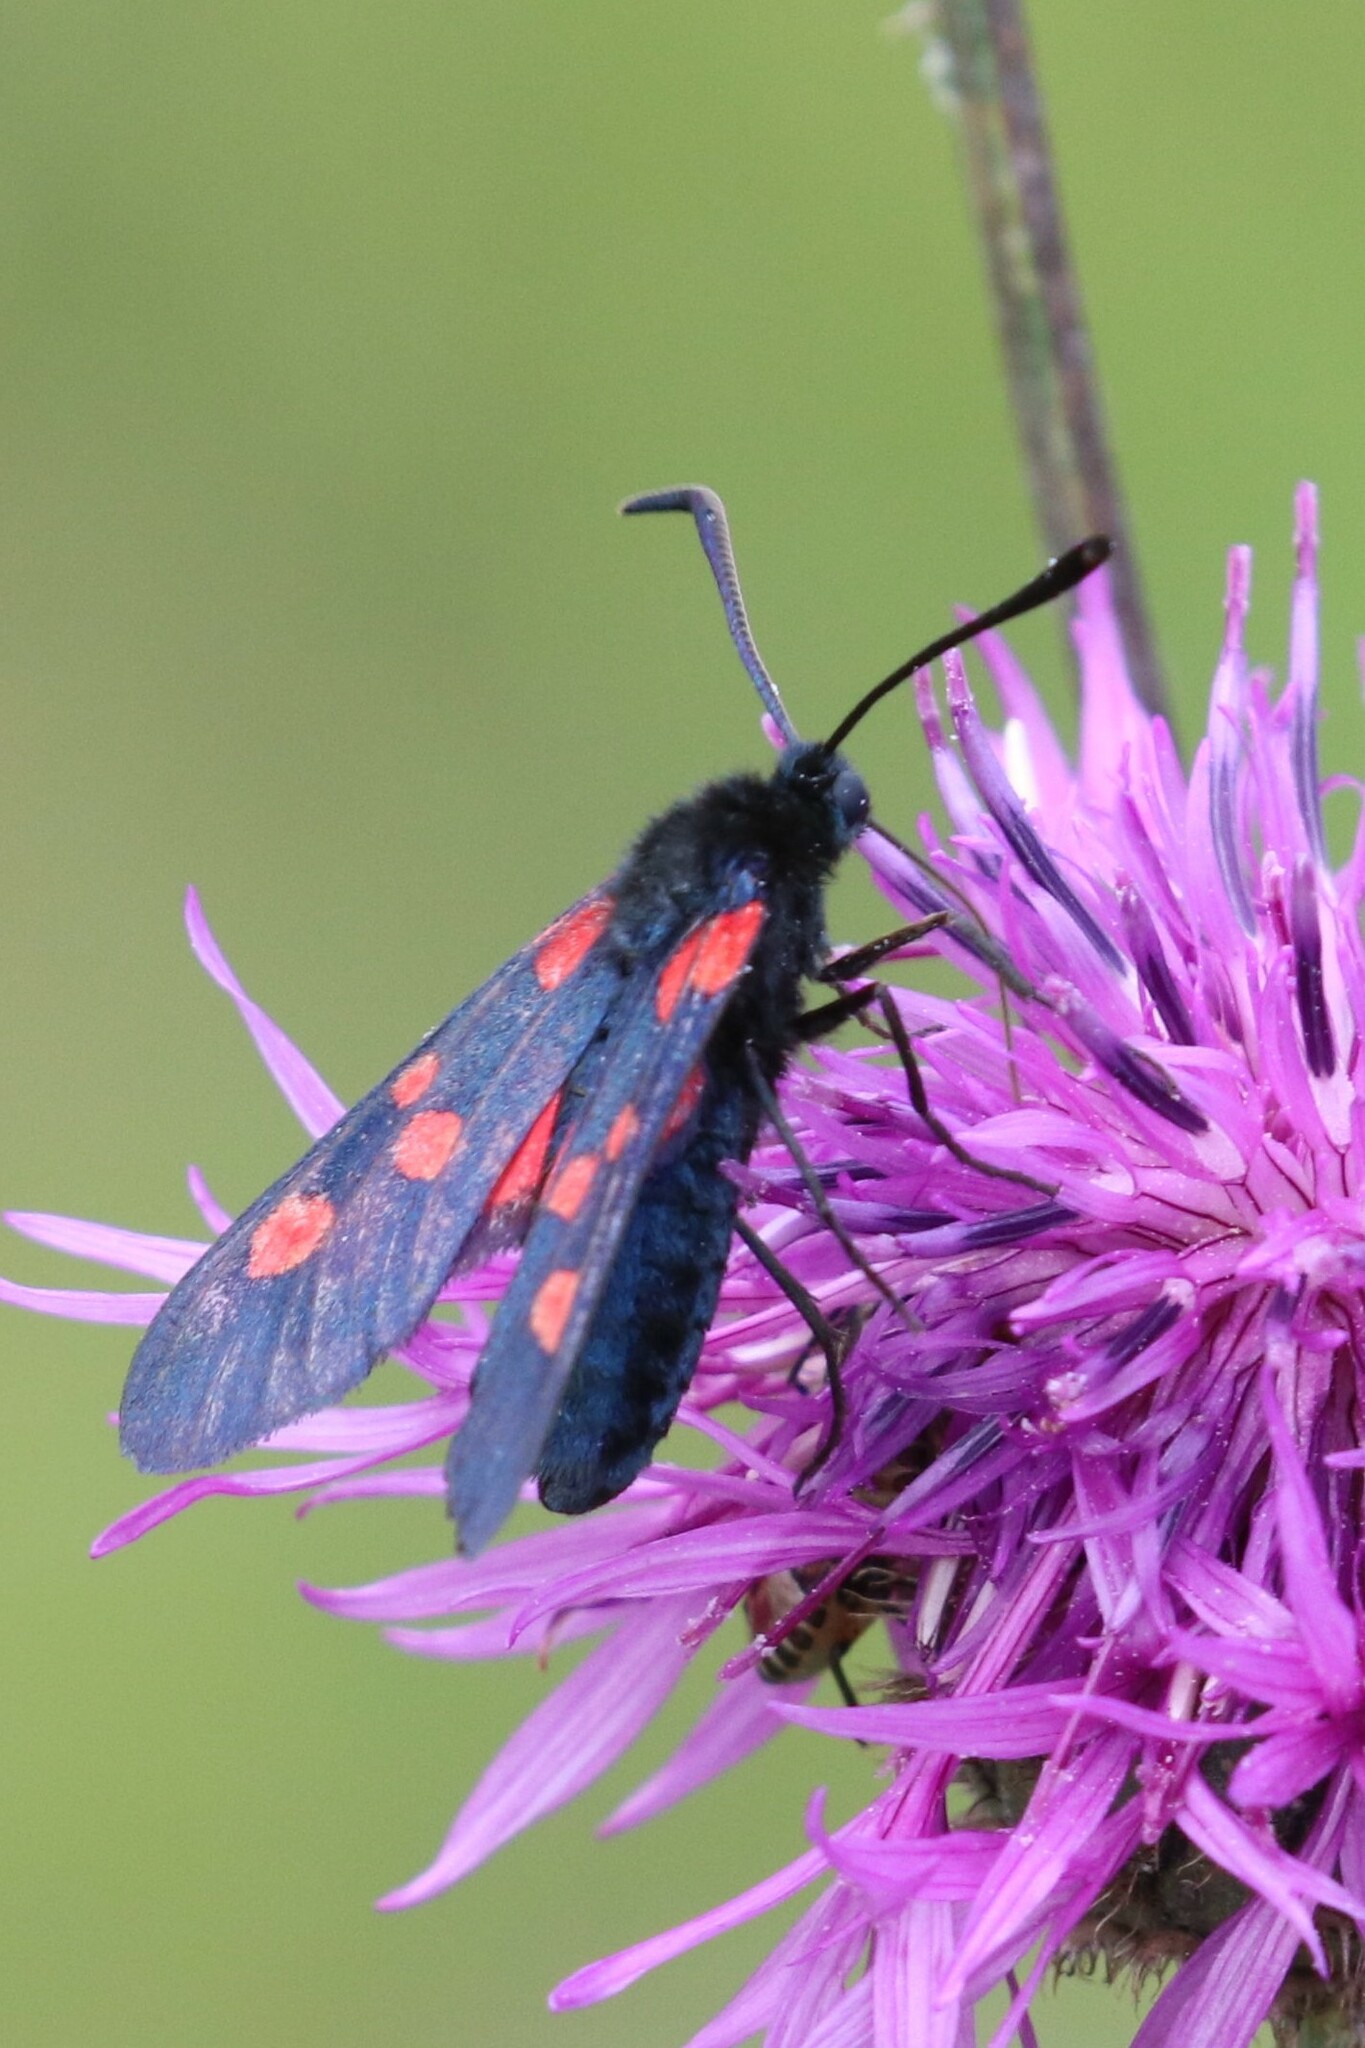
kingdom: Animalia
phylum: Arthropoda
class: Insecta
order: Lepidoptera
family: Zygaenidae
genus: Zygaena
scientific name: Zygaena lonicerae
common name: Narrow-bordered five-spot burnet
